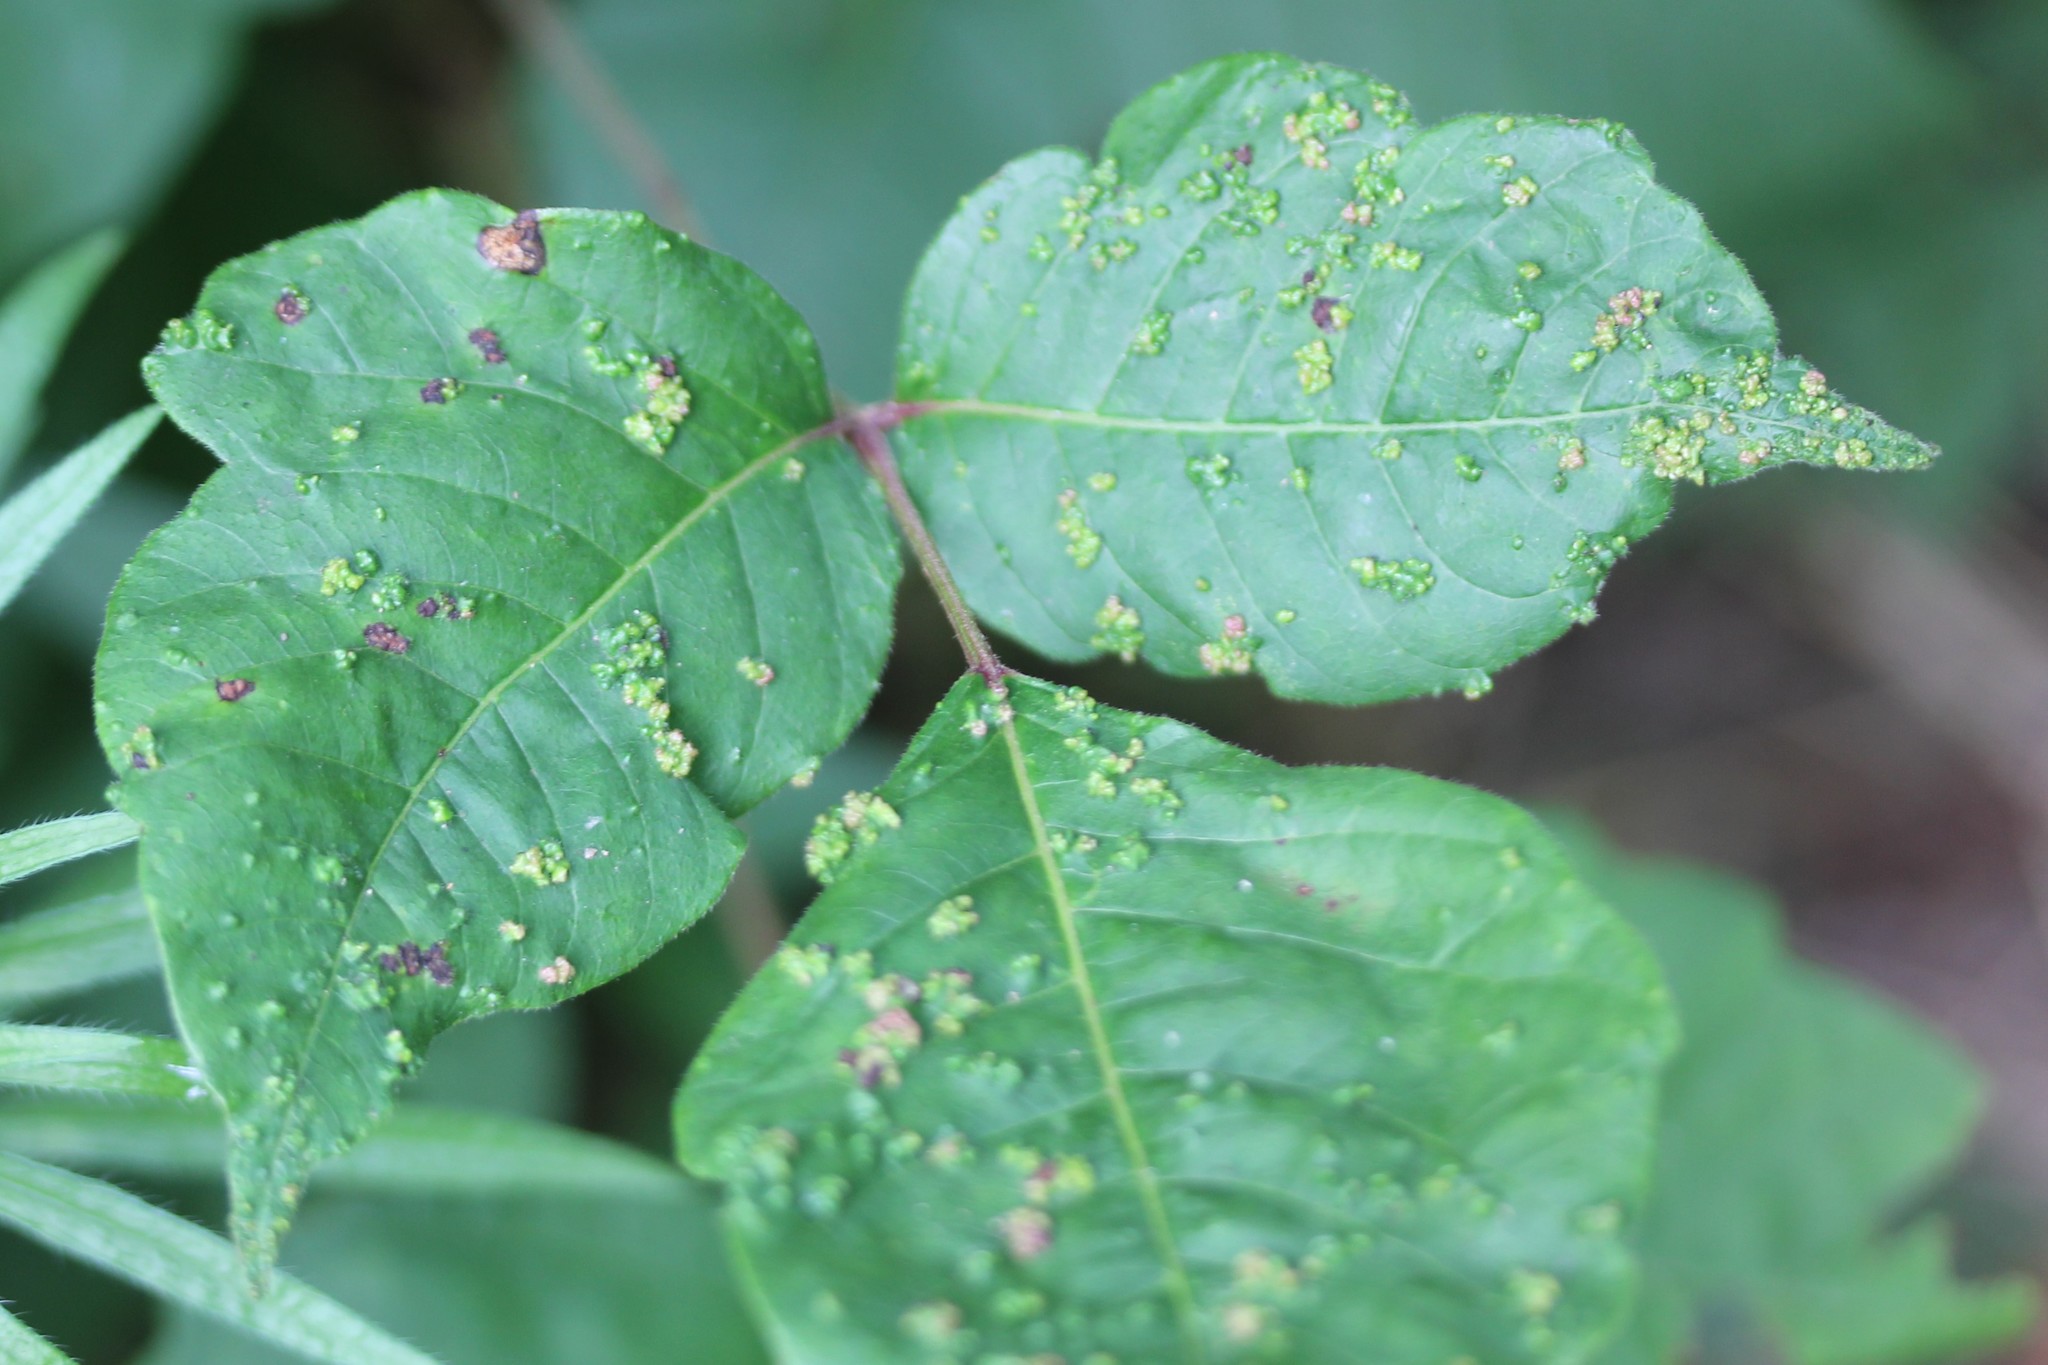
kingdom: Animalia
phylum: Arthropoda
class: Arachnida
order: Trombidiformes
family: Eriophyidae
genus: Aculops
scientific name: Aculops
